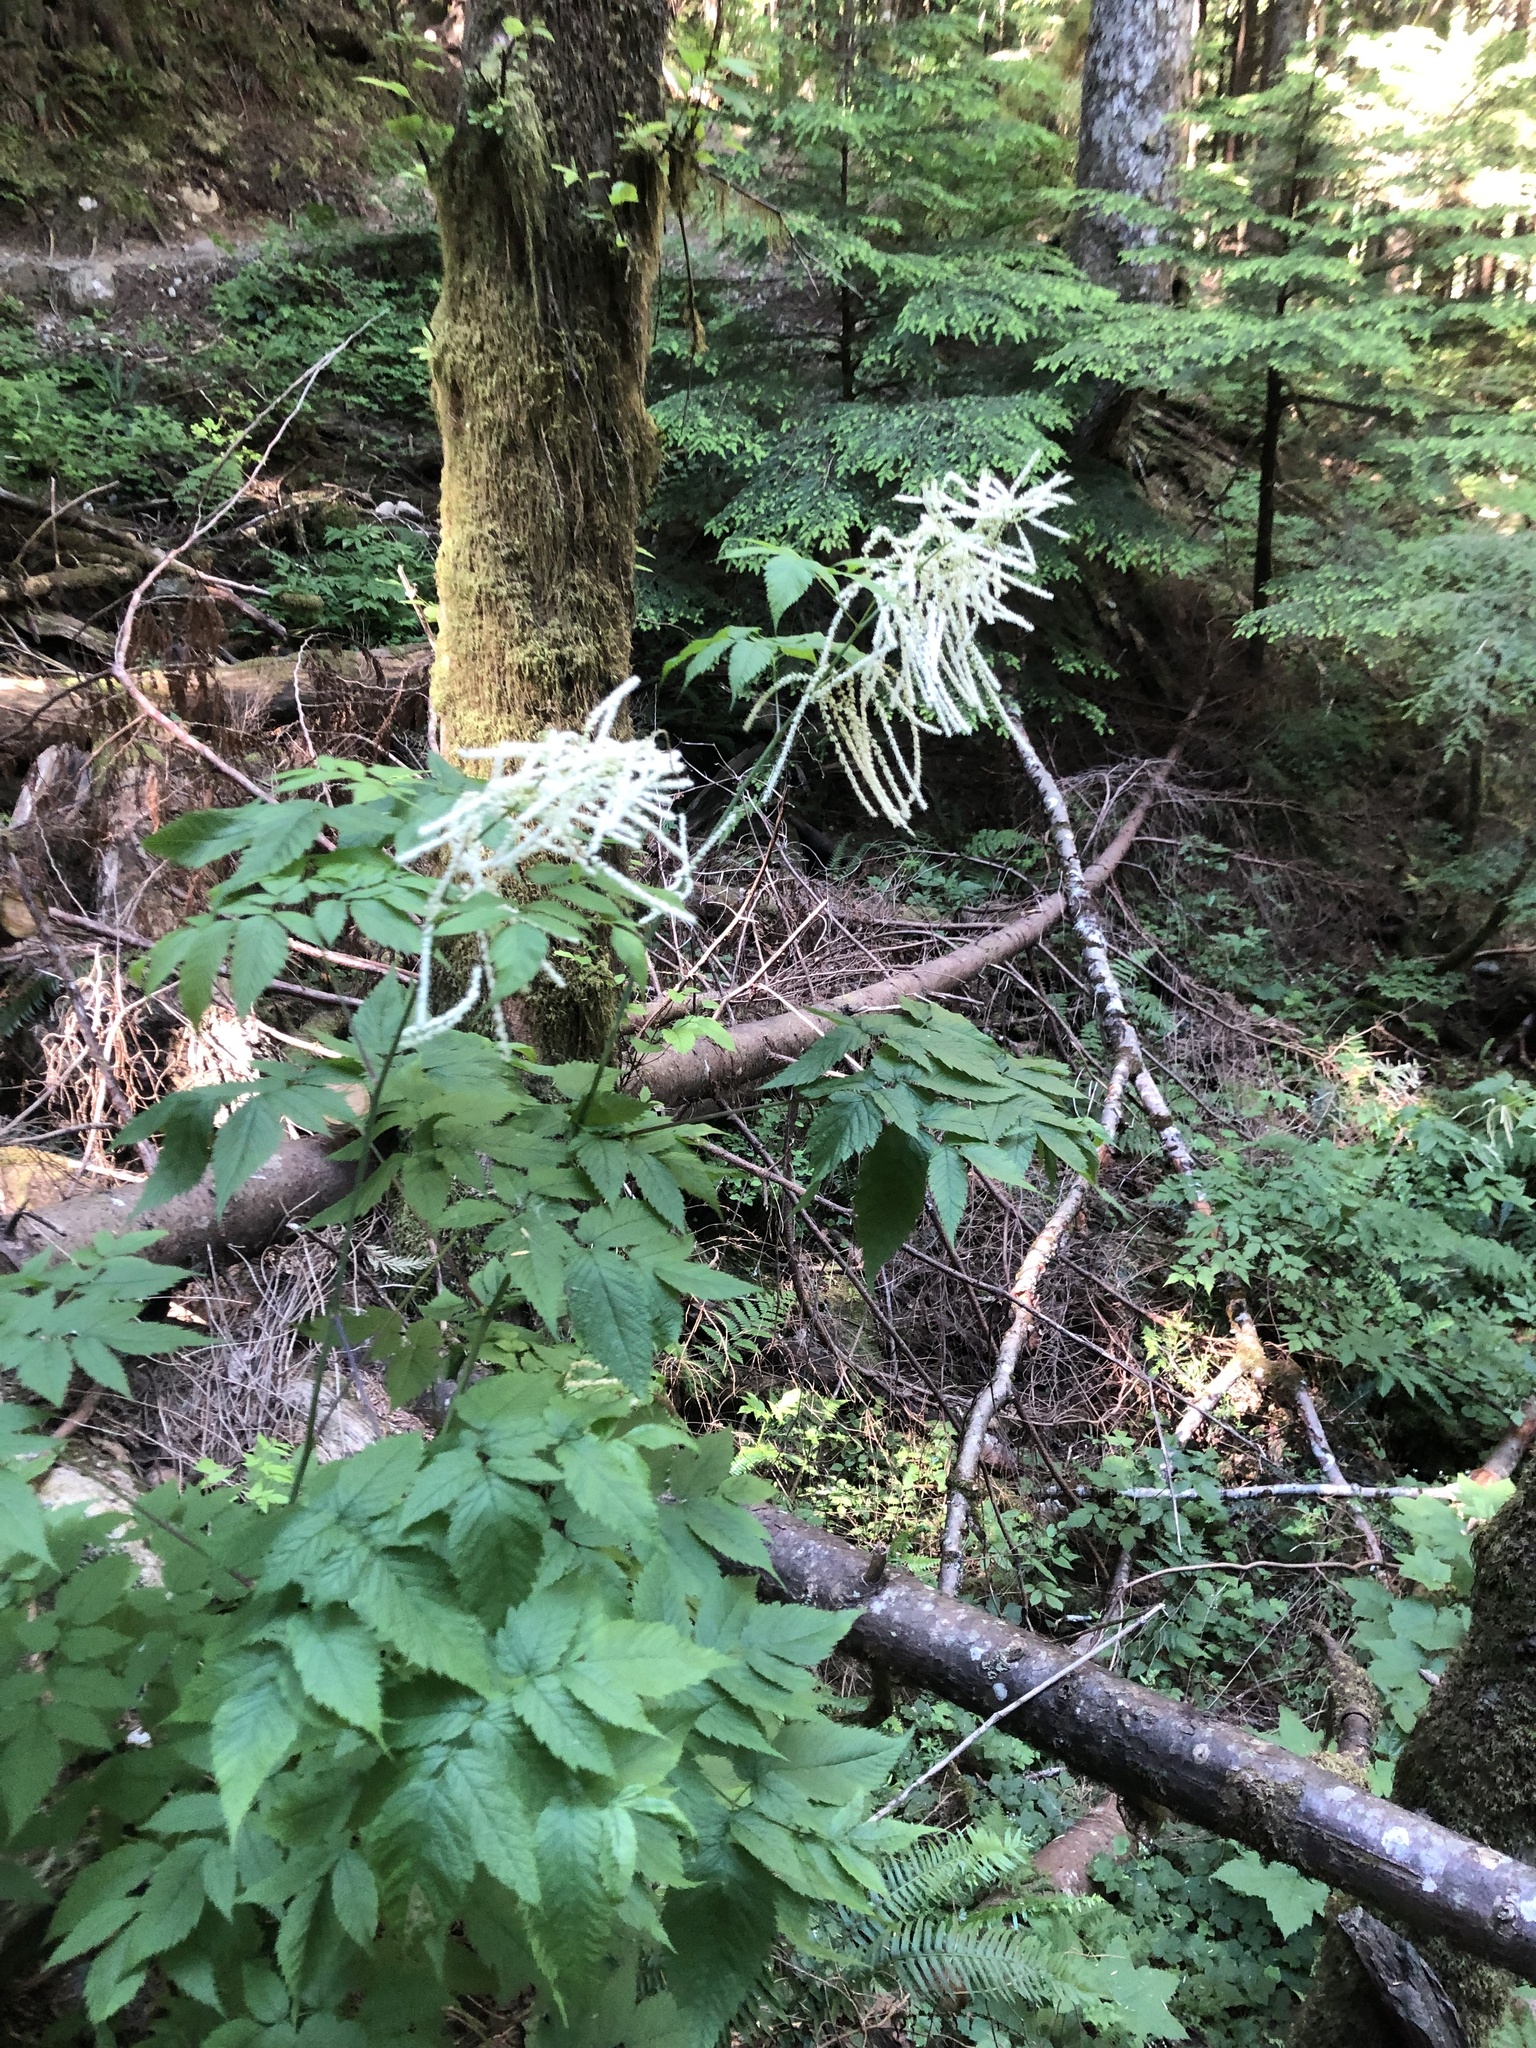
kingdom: Plantae
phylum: Tracheophyta
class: Magnoliopsida
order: Rosales
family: Rosaceae
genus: Aruncus
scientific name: Aruncus dioicus
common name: Buck's-beard
